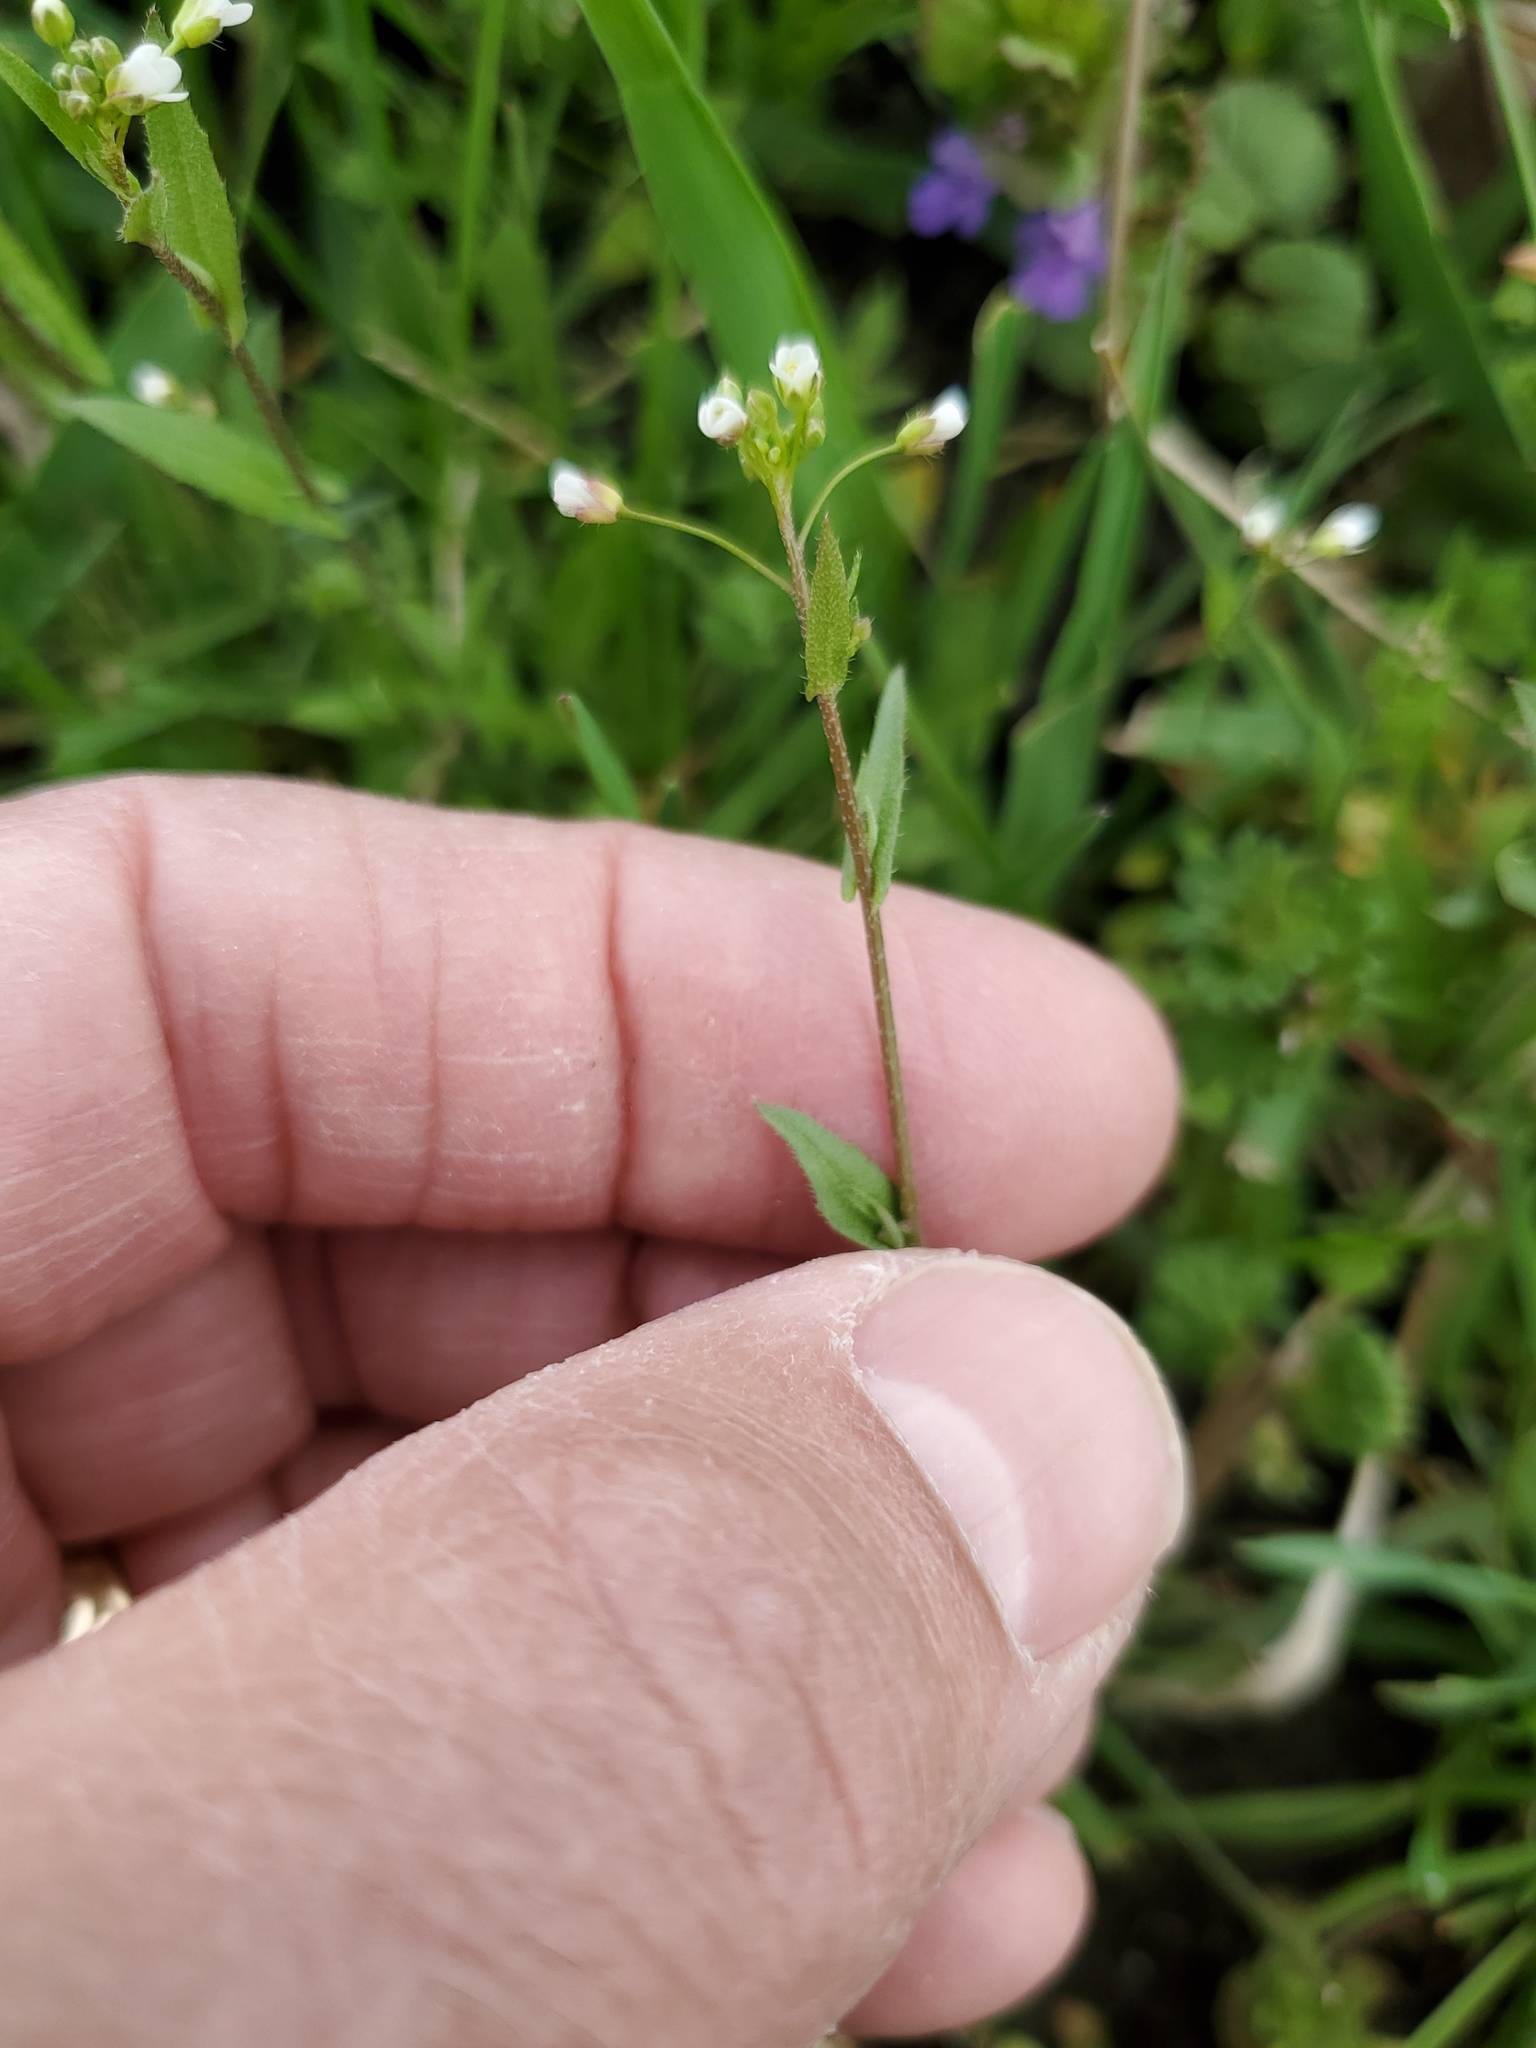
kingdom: Plantae
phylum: Tracheophyta
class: Magnoliopsida
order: Brassicales
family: Brassicaceae
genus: Capsella
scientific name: Capsella bursa-pastoris
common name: Shepherd's purse
